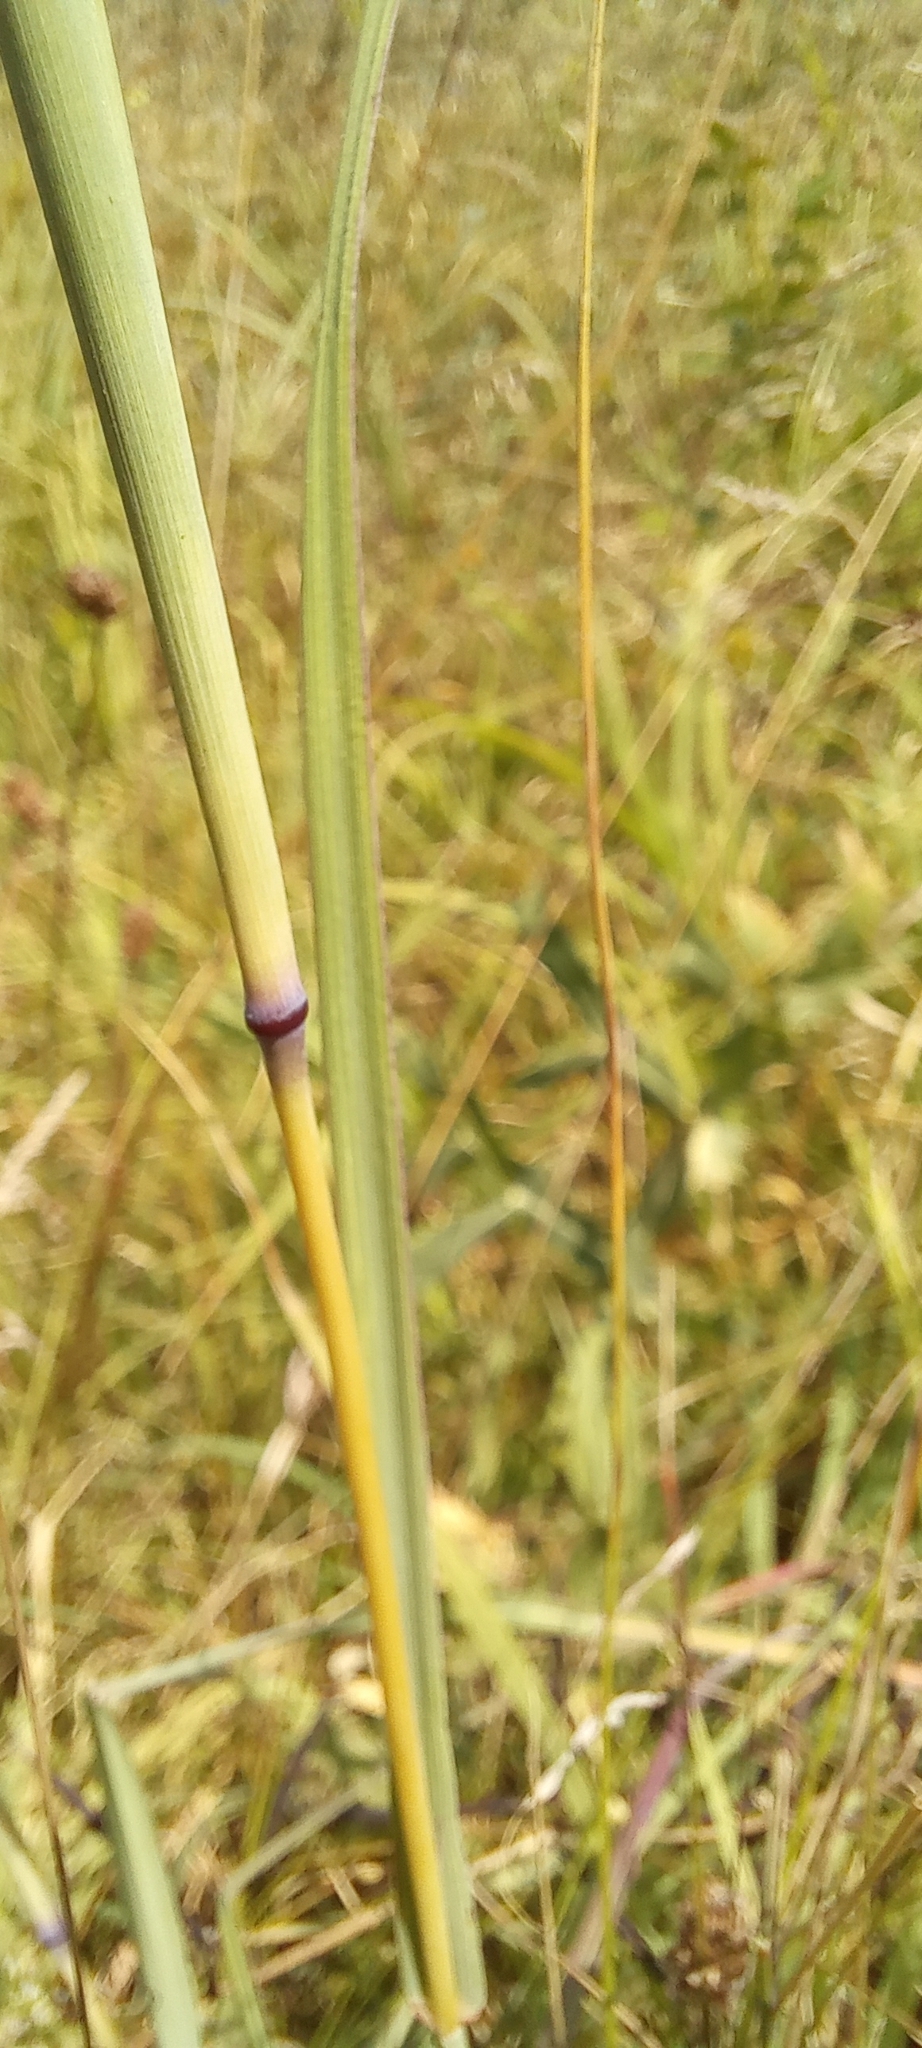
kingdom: Plantae
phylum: Tracheophyta
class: Liliopsida
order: Poales
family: Poaceae
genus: Bothriochloa
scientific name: Bothriochloa ischaemum
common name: Yellow bluestem
